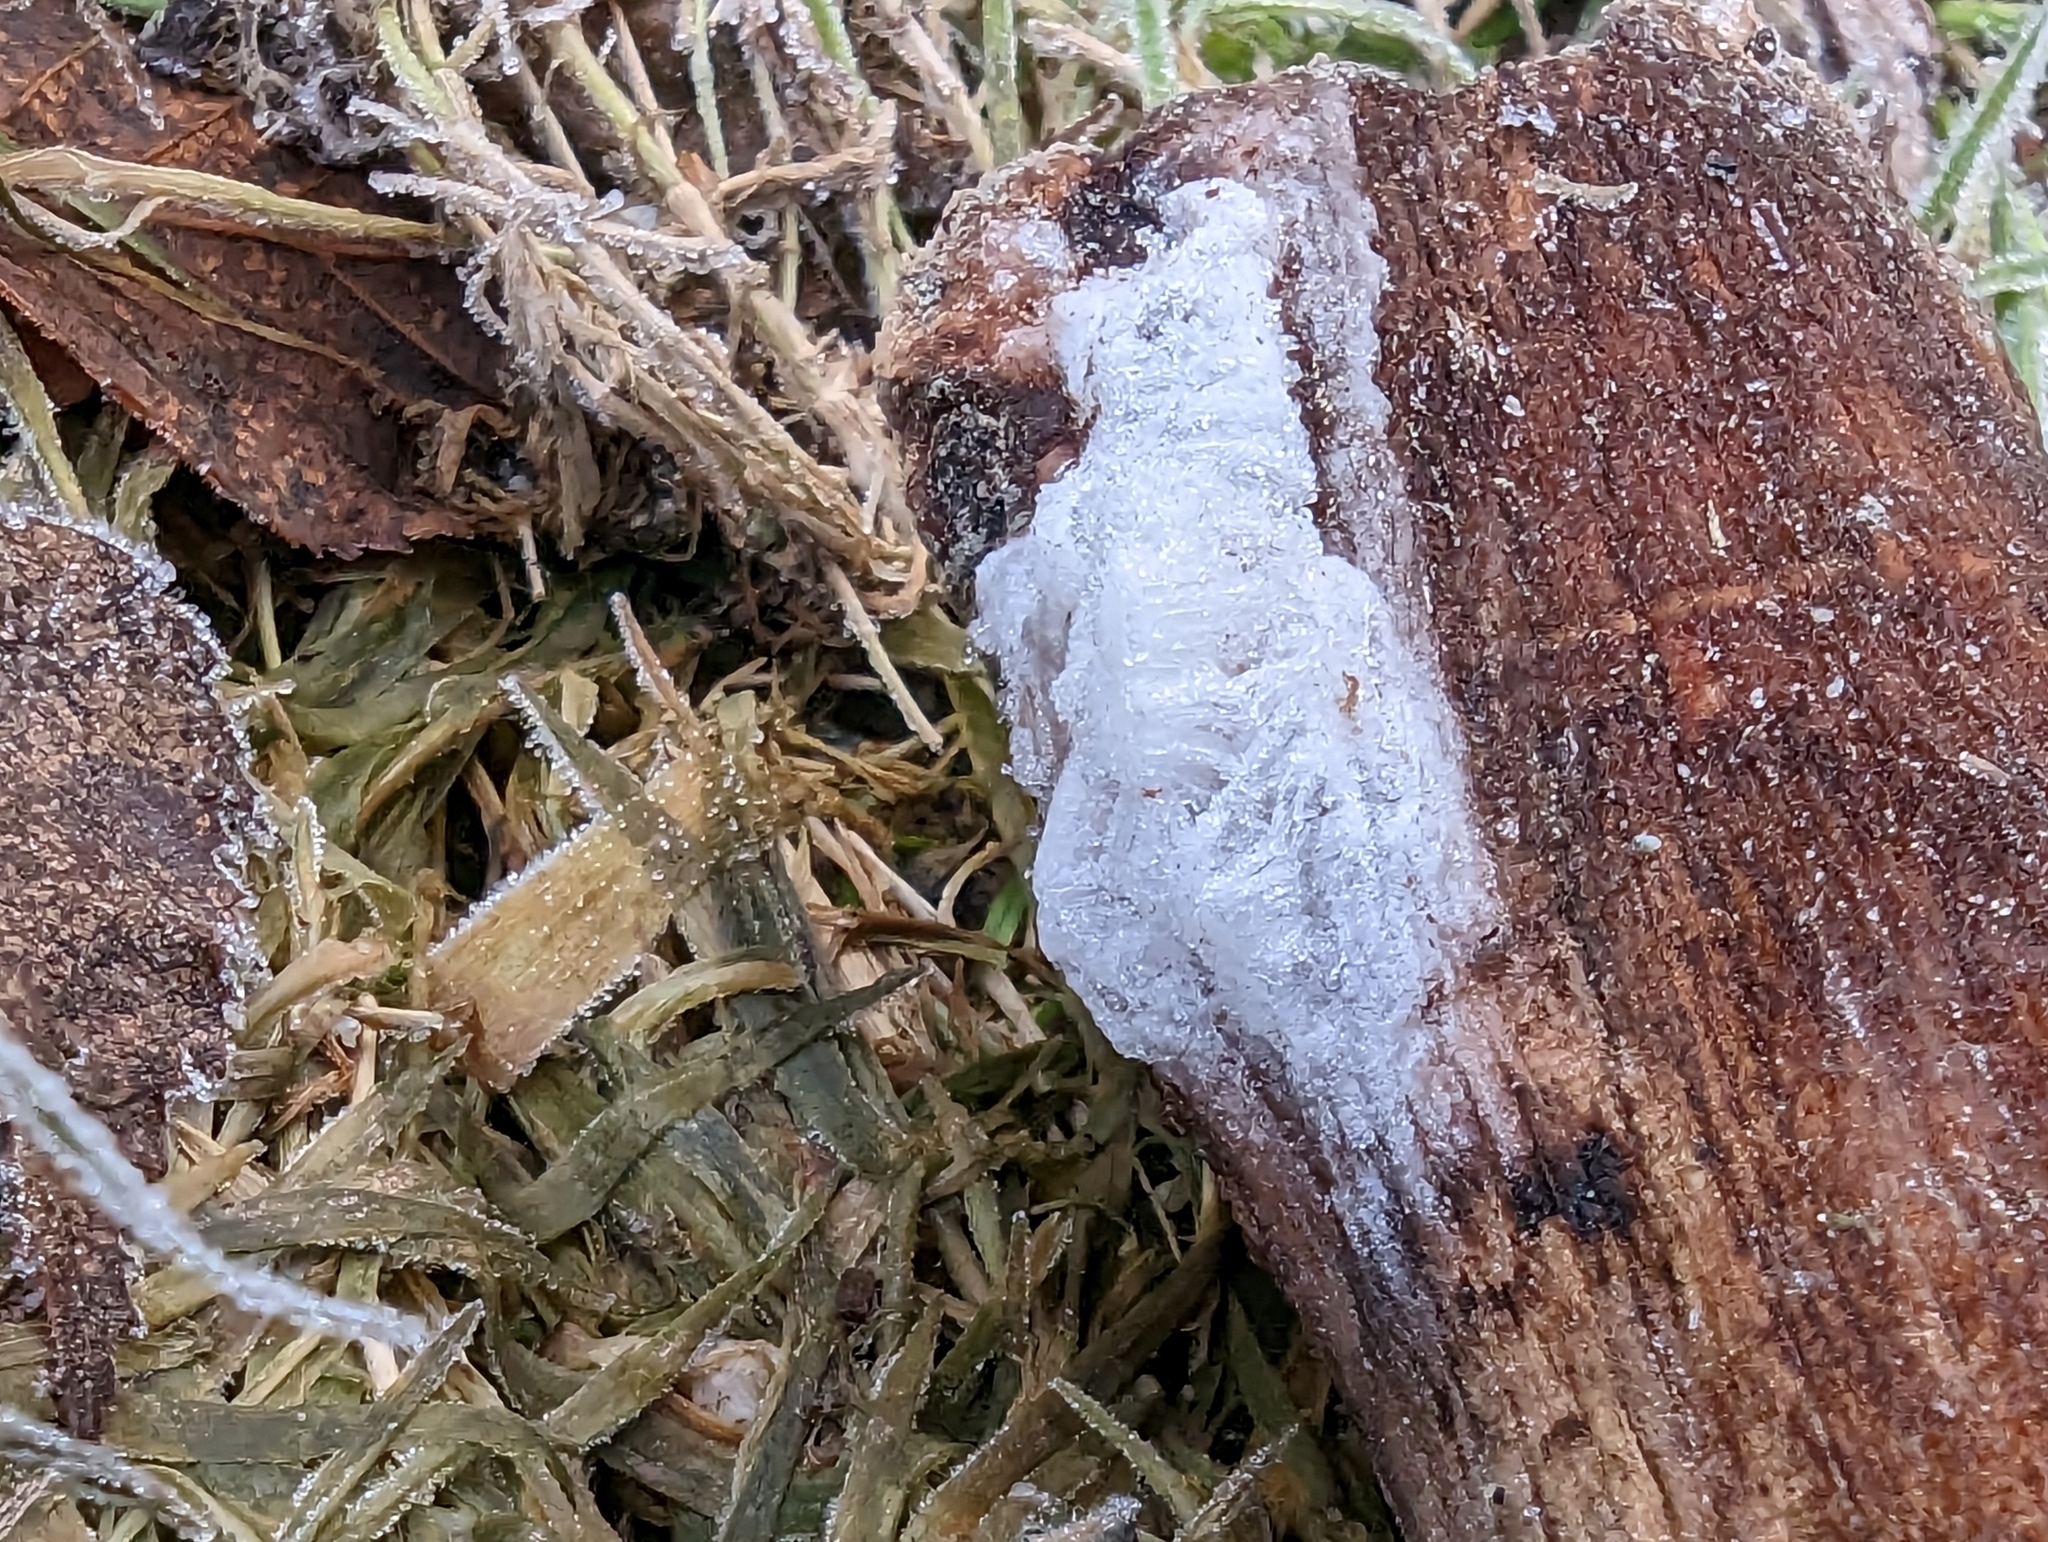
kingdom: Fungi
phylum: Basidiomycota
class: Agaricomycetes
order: Auriculariales
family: Auriculariaceae
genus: Exidiopsis
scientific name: Exidiopsis effusa
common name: Hair ice crust
